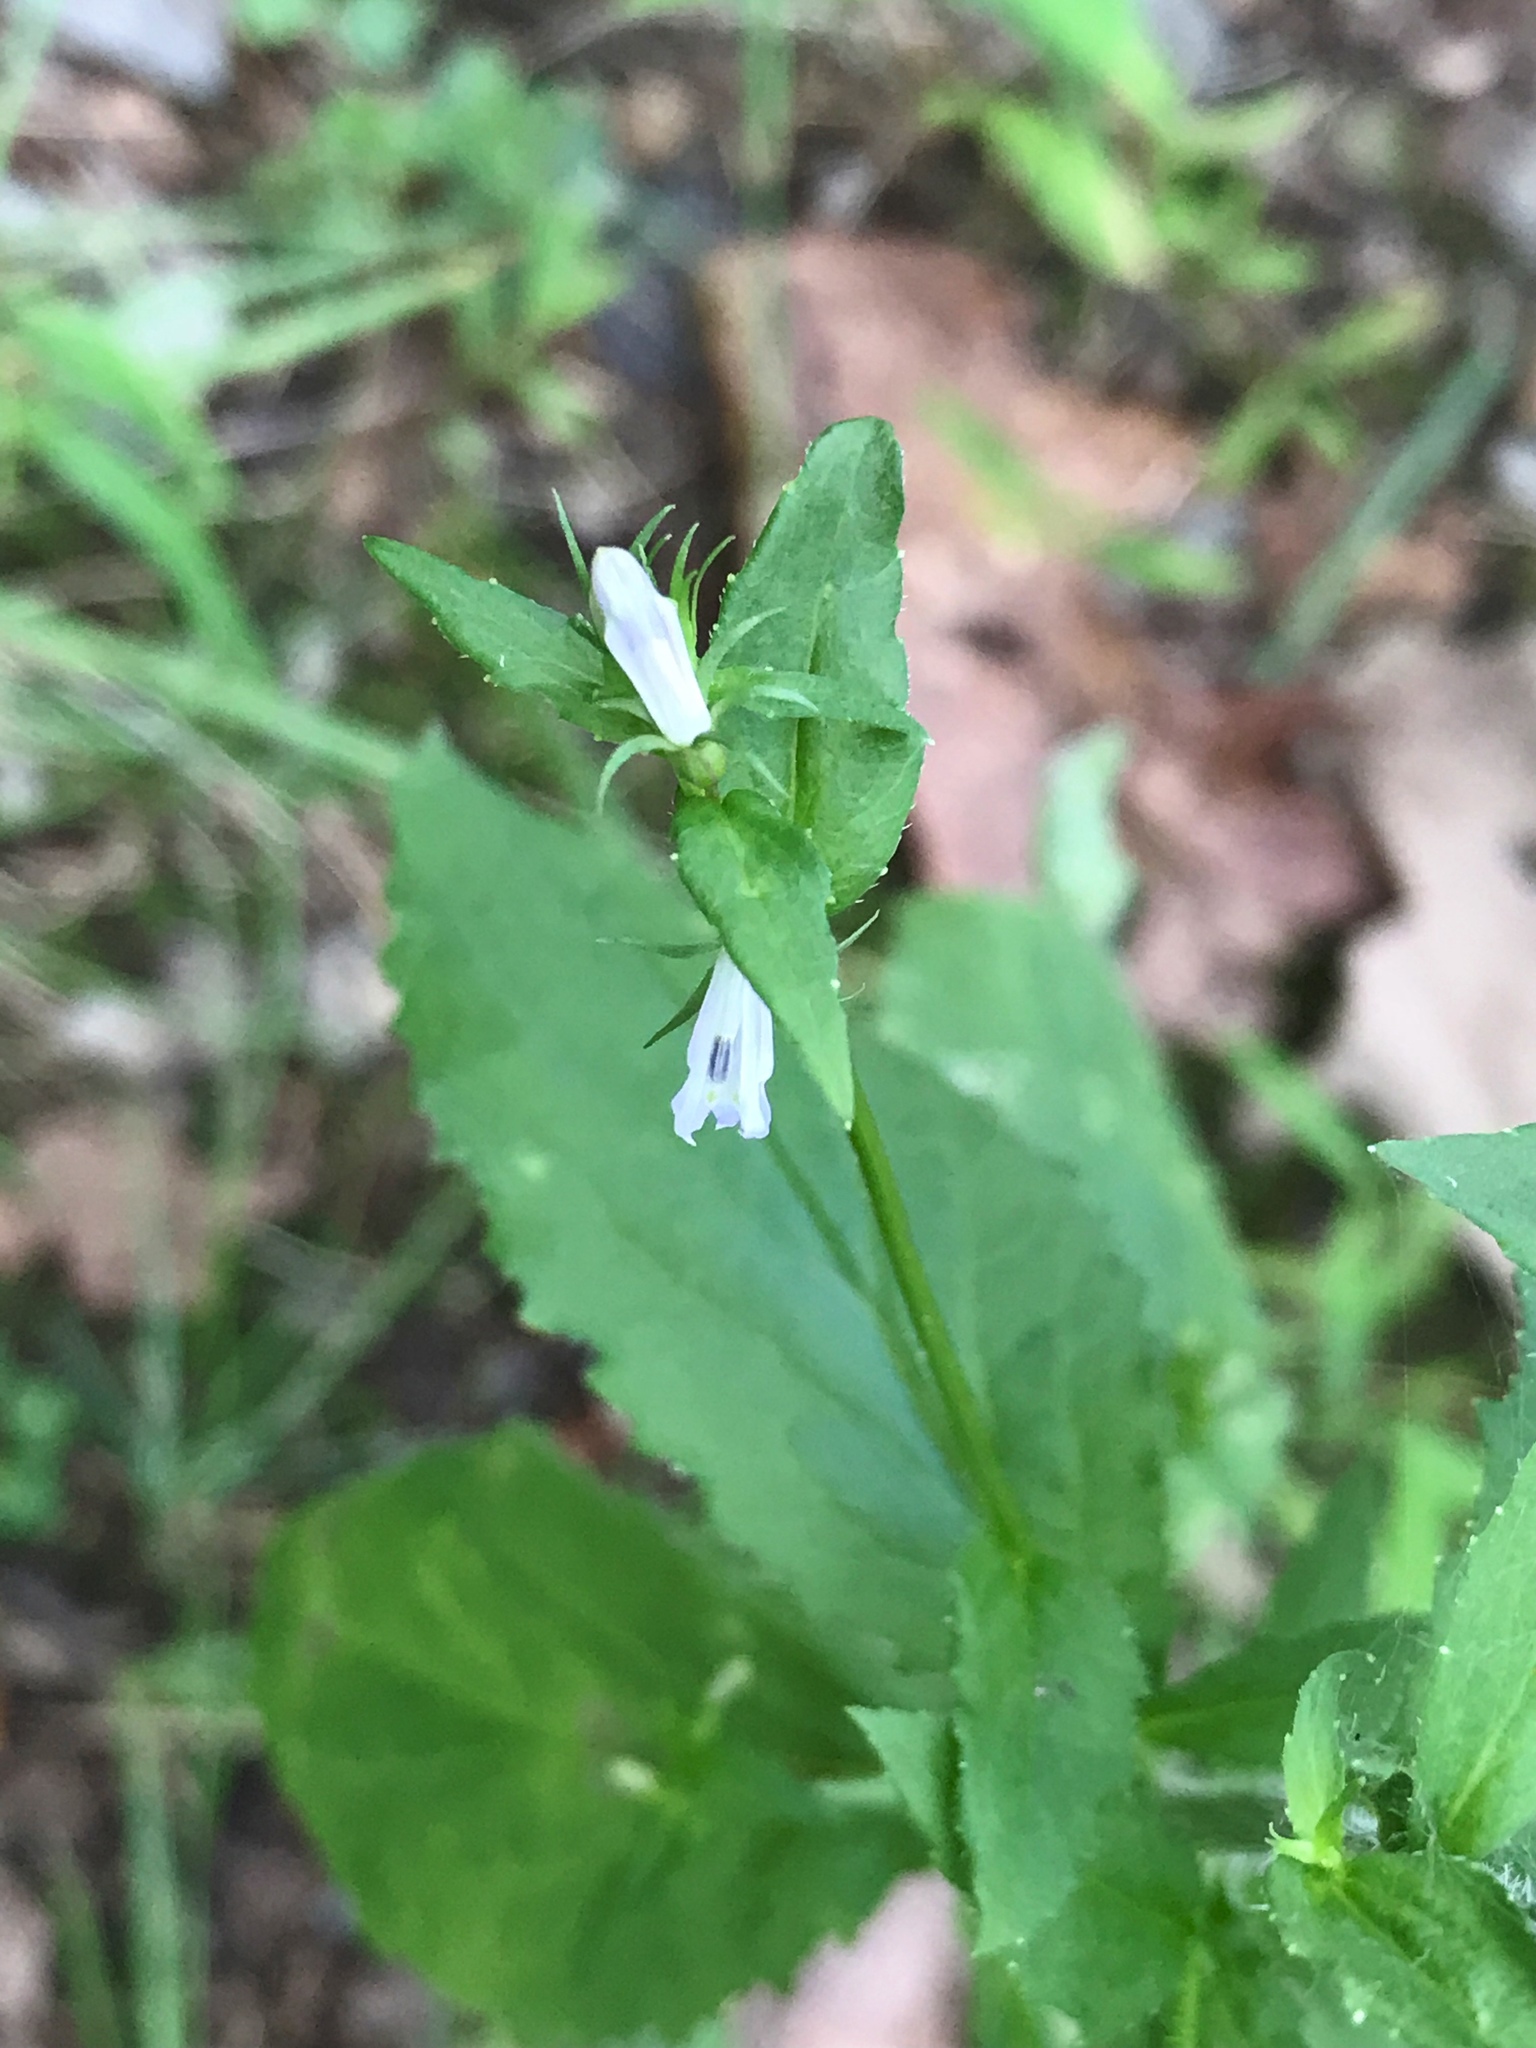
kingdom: Plantae
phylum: Tracheophyta
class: Magnoliopsida
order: Asterales
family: Campanulaceae
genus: Lobelia
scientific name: Lobelia inflata
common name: Indian tobacco
